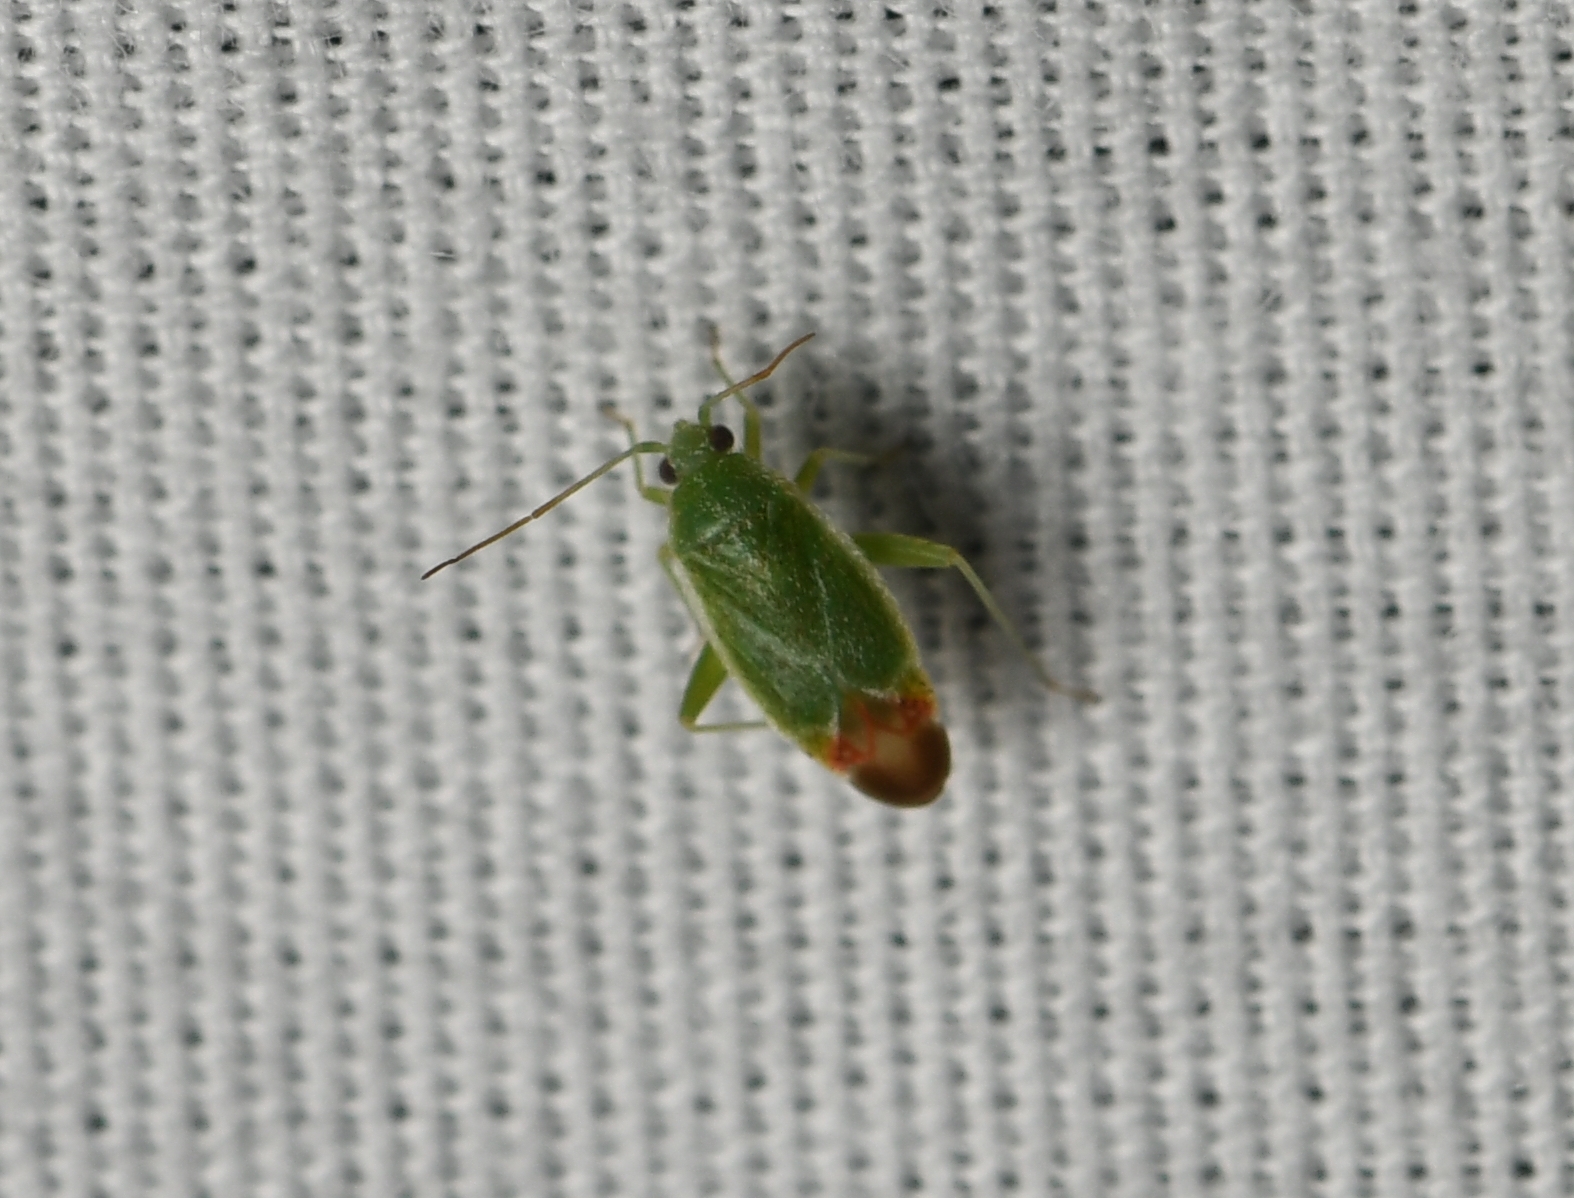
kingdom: Animalia
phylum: Arthropoda
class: Insecta
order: Hemiptera
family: Miridae
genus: Parthenicus
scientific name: Parthenicus rufivenosus
